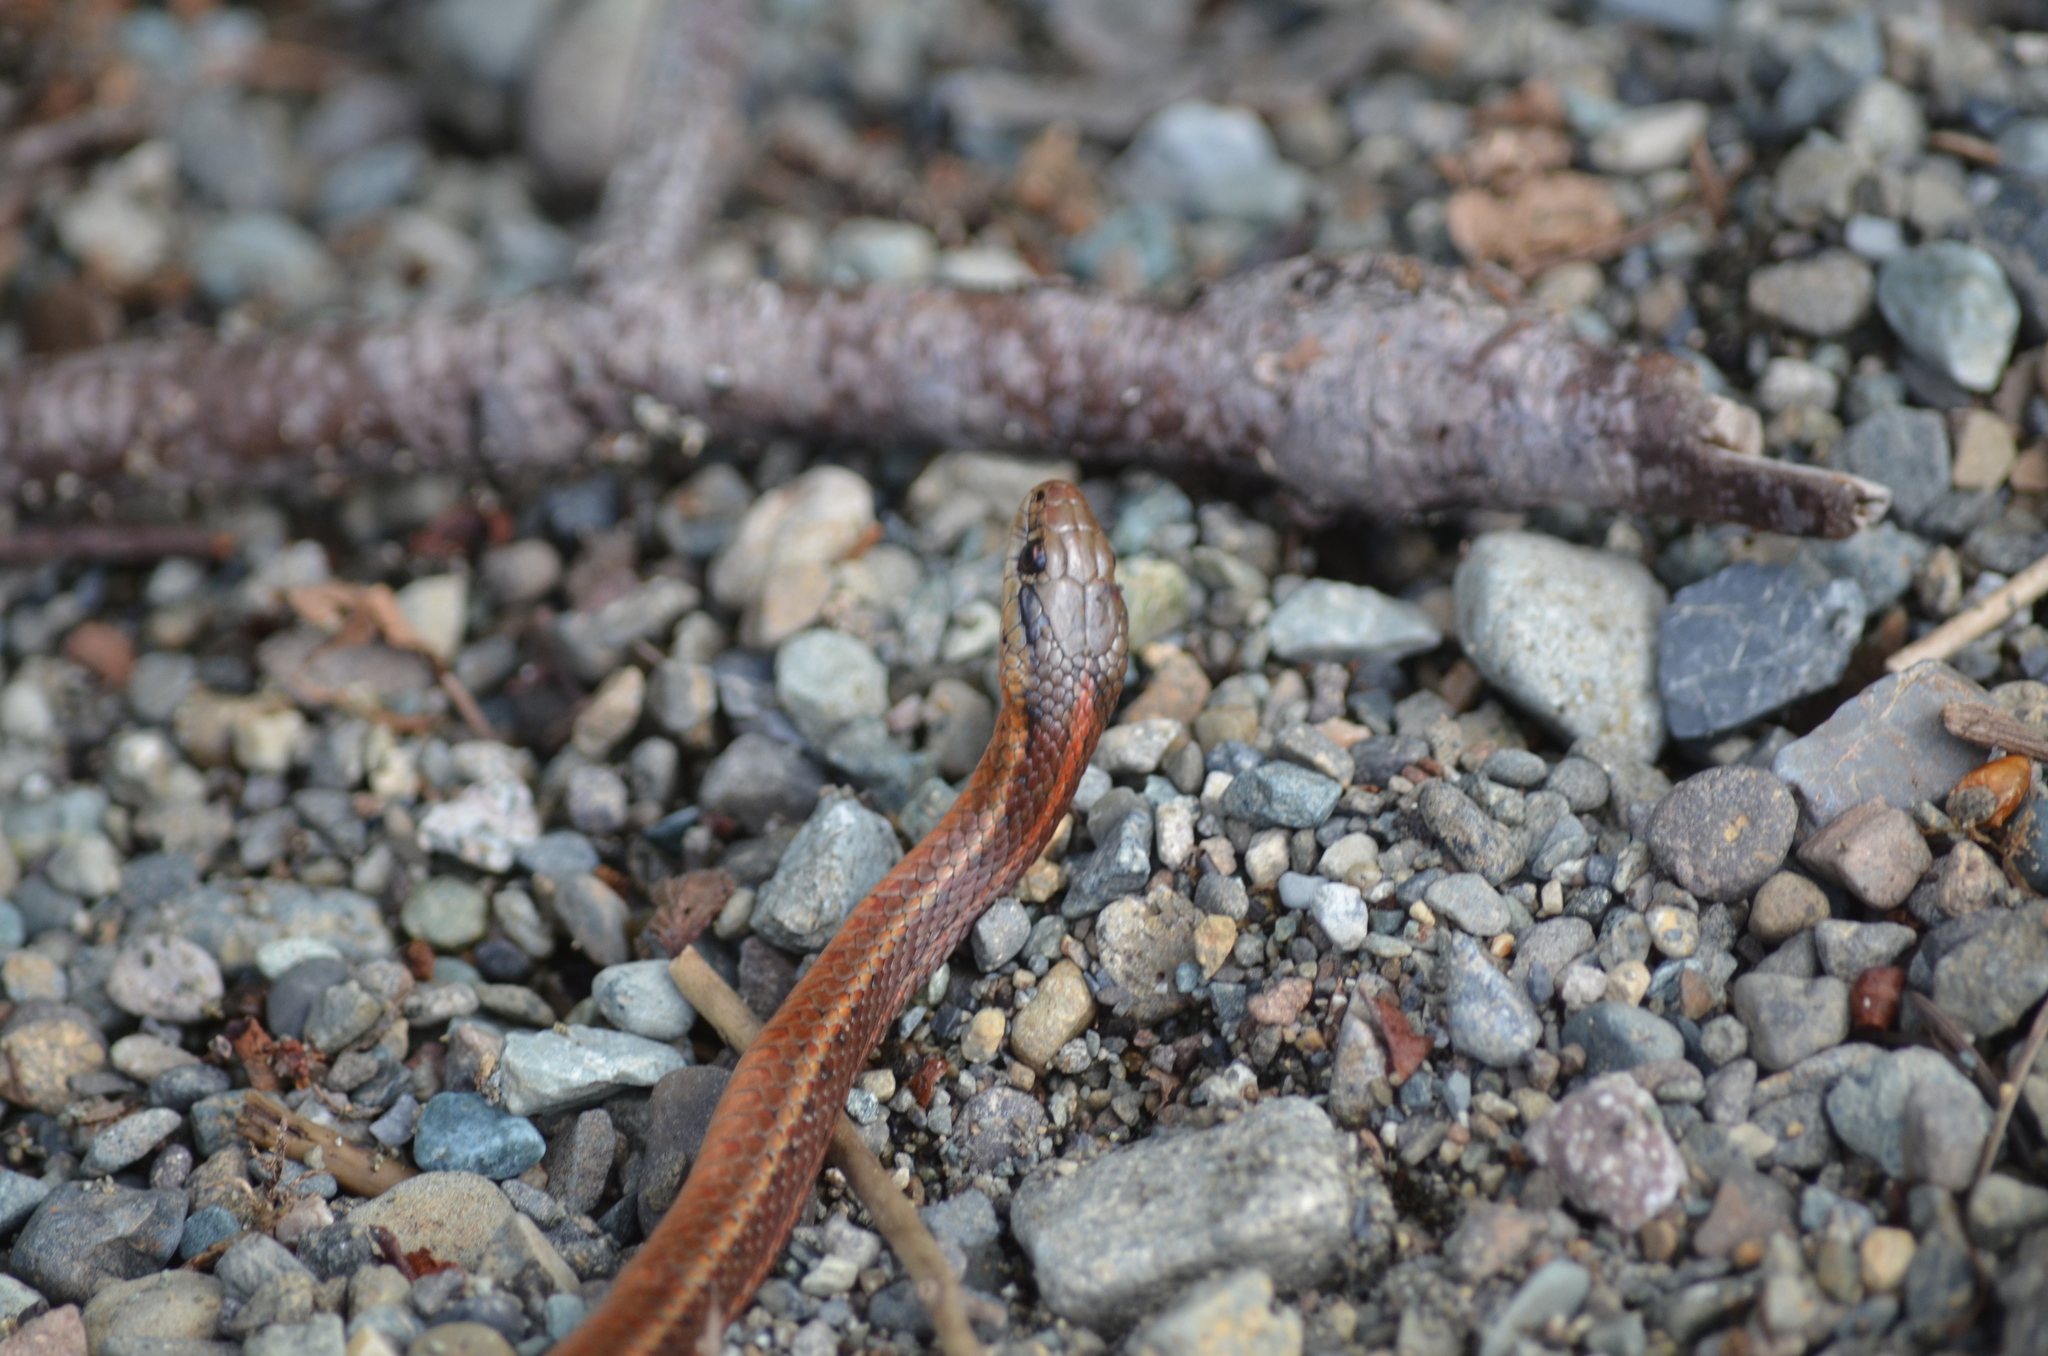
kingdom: Animalia
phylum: Chordata
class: Squamata
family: Colubridae
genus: Thamnophis
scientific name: Thamnophis ordinoides
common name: Northwestern garter snake
